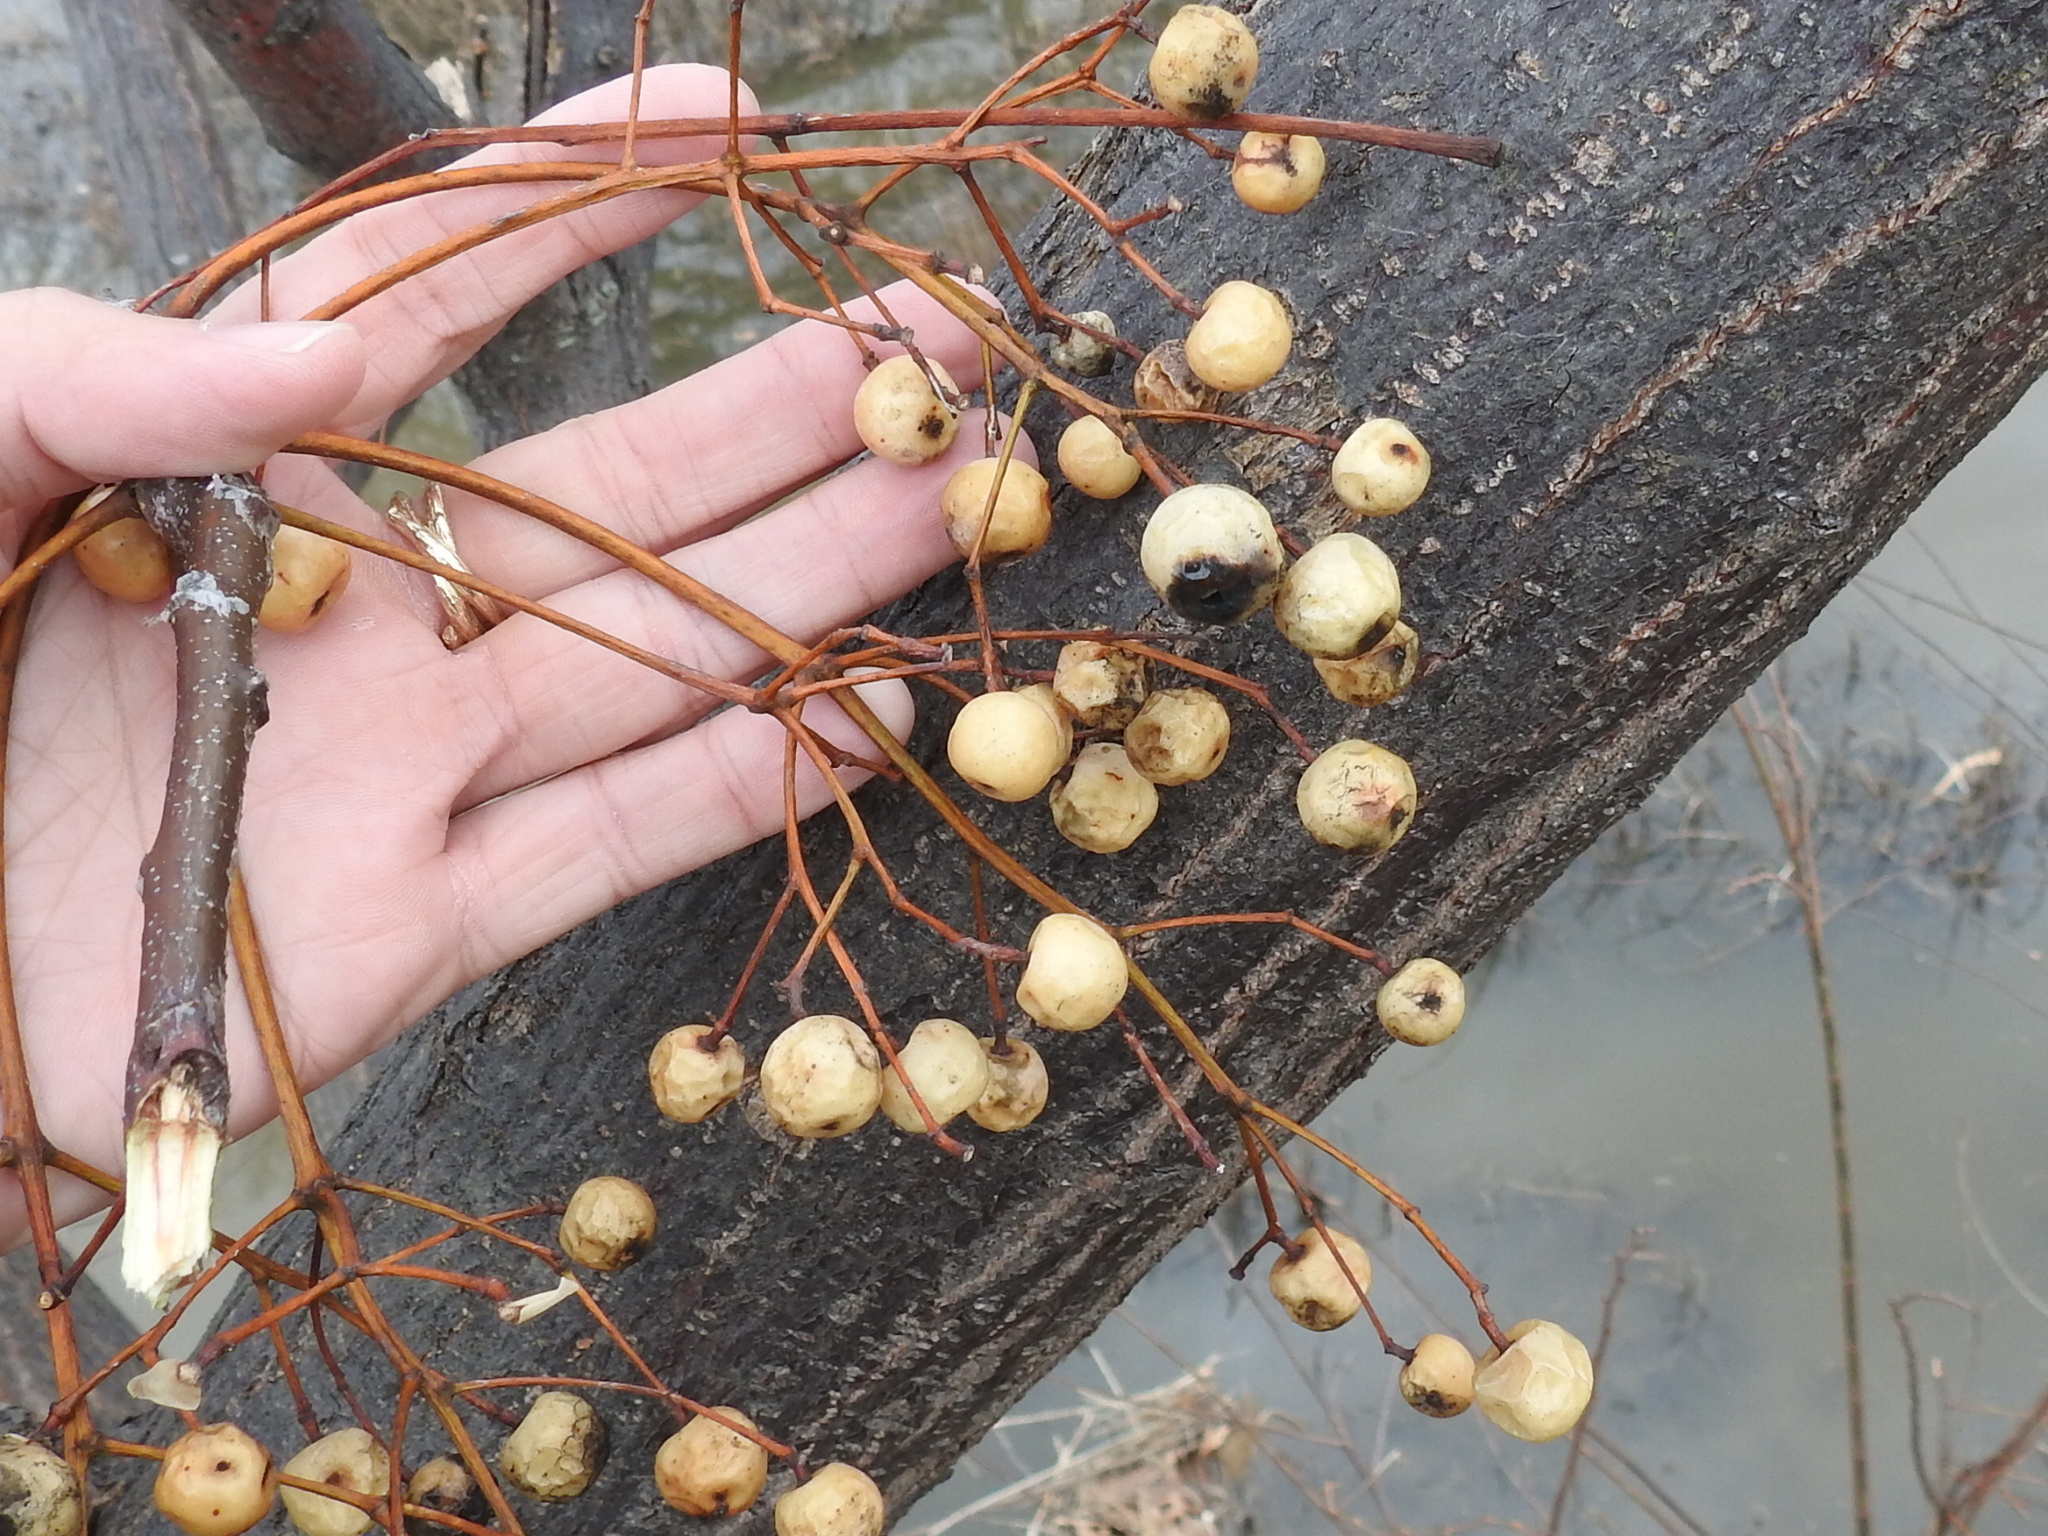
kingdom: Plantae
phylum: Tracheophyta
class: Magnoliopsida
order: Sapindales
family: Meliaceae
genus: Melia
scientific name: Melia azedarach
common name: Chinaberrytree
